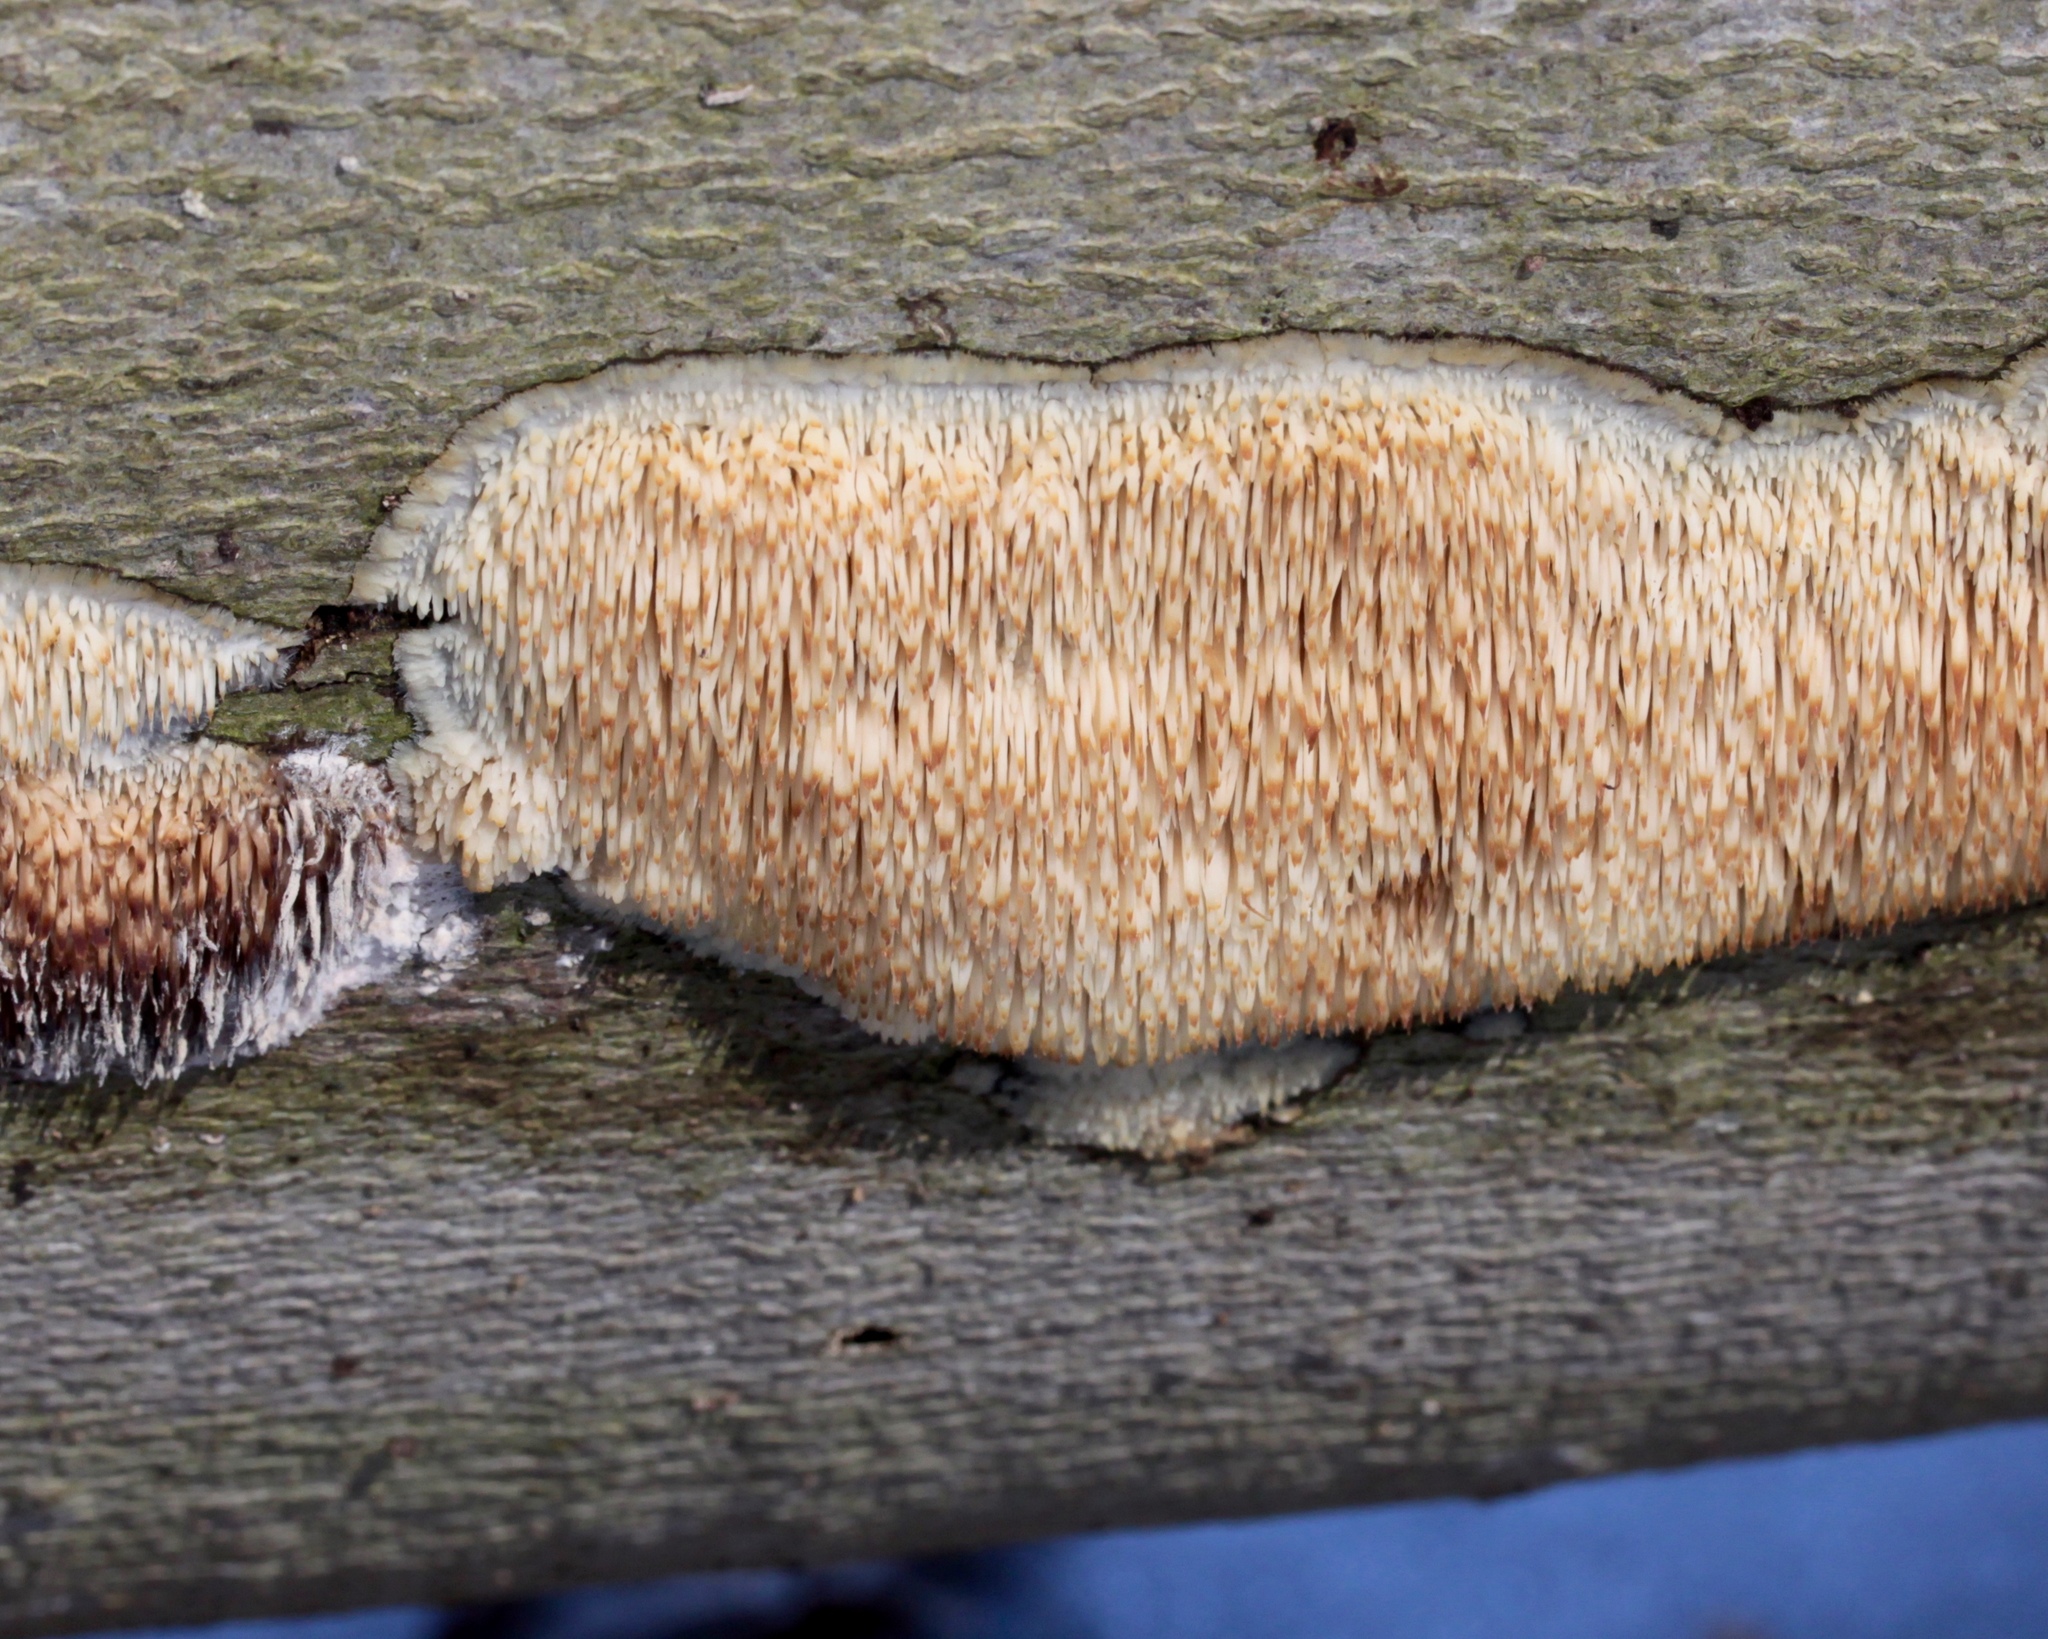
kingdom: Fungi
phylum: Basidiomycota
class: Agaricomycetes
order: Agaricales
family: Radulomycetaceae
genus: Radulomyces
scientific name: Radulomyces copelandii
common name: Asian beauty
